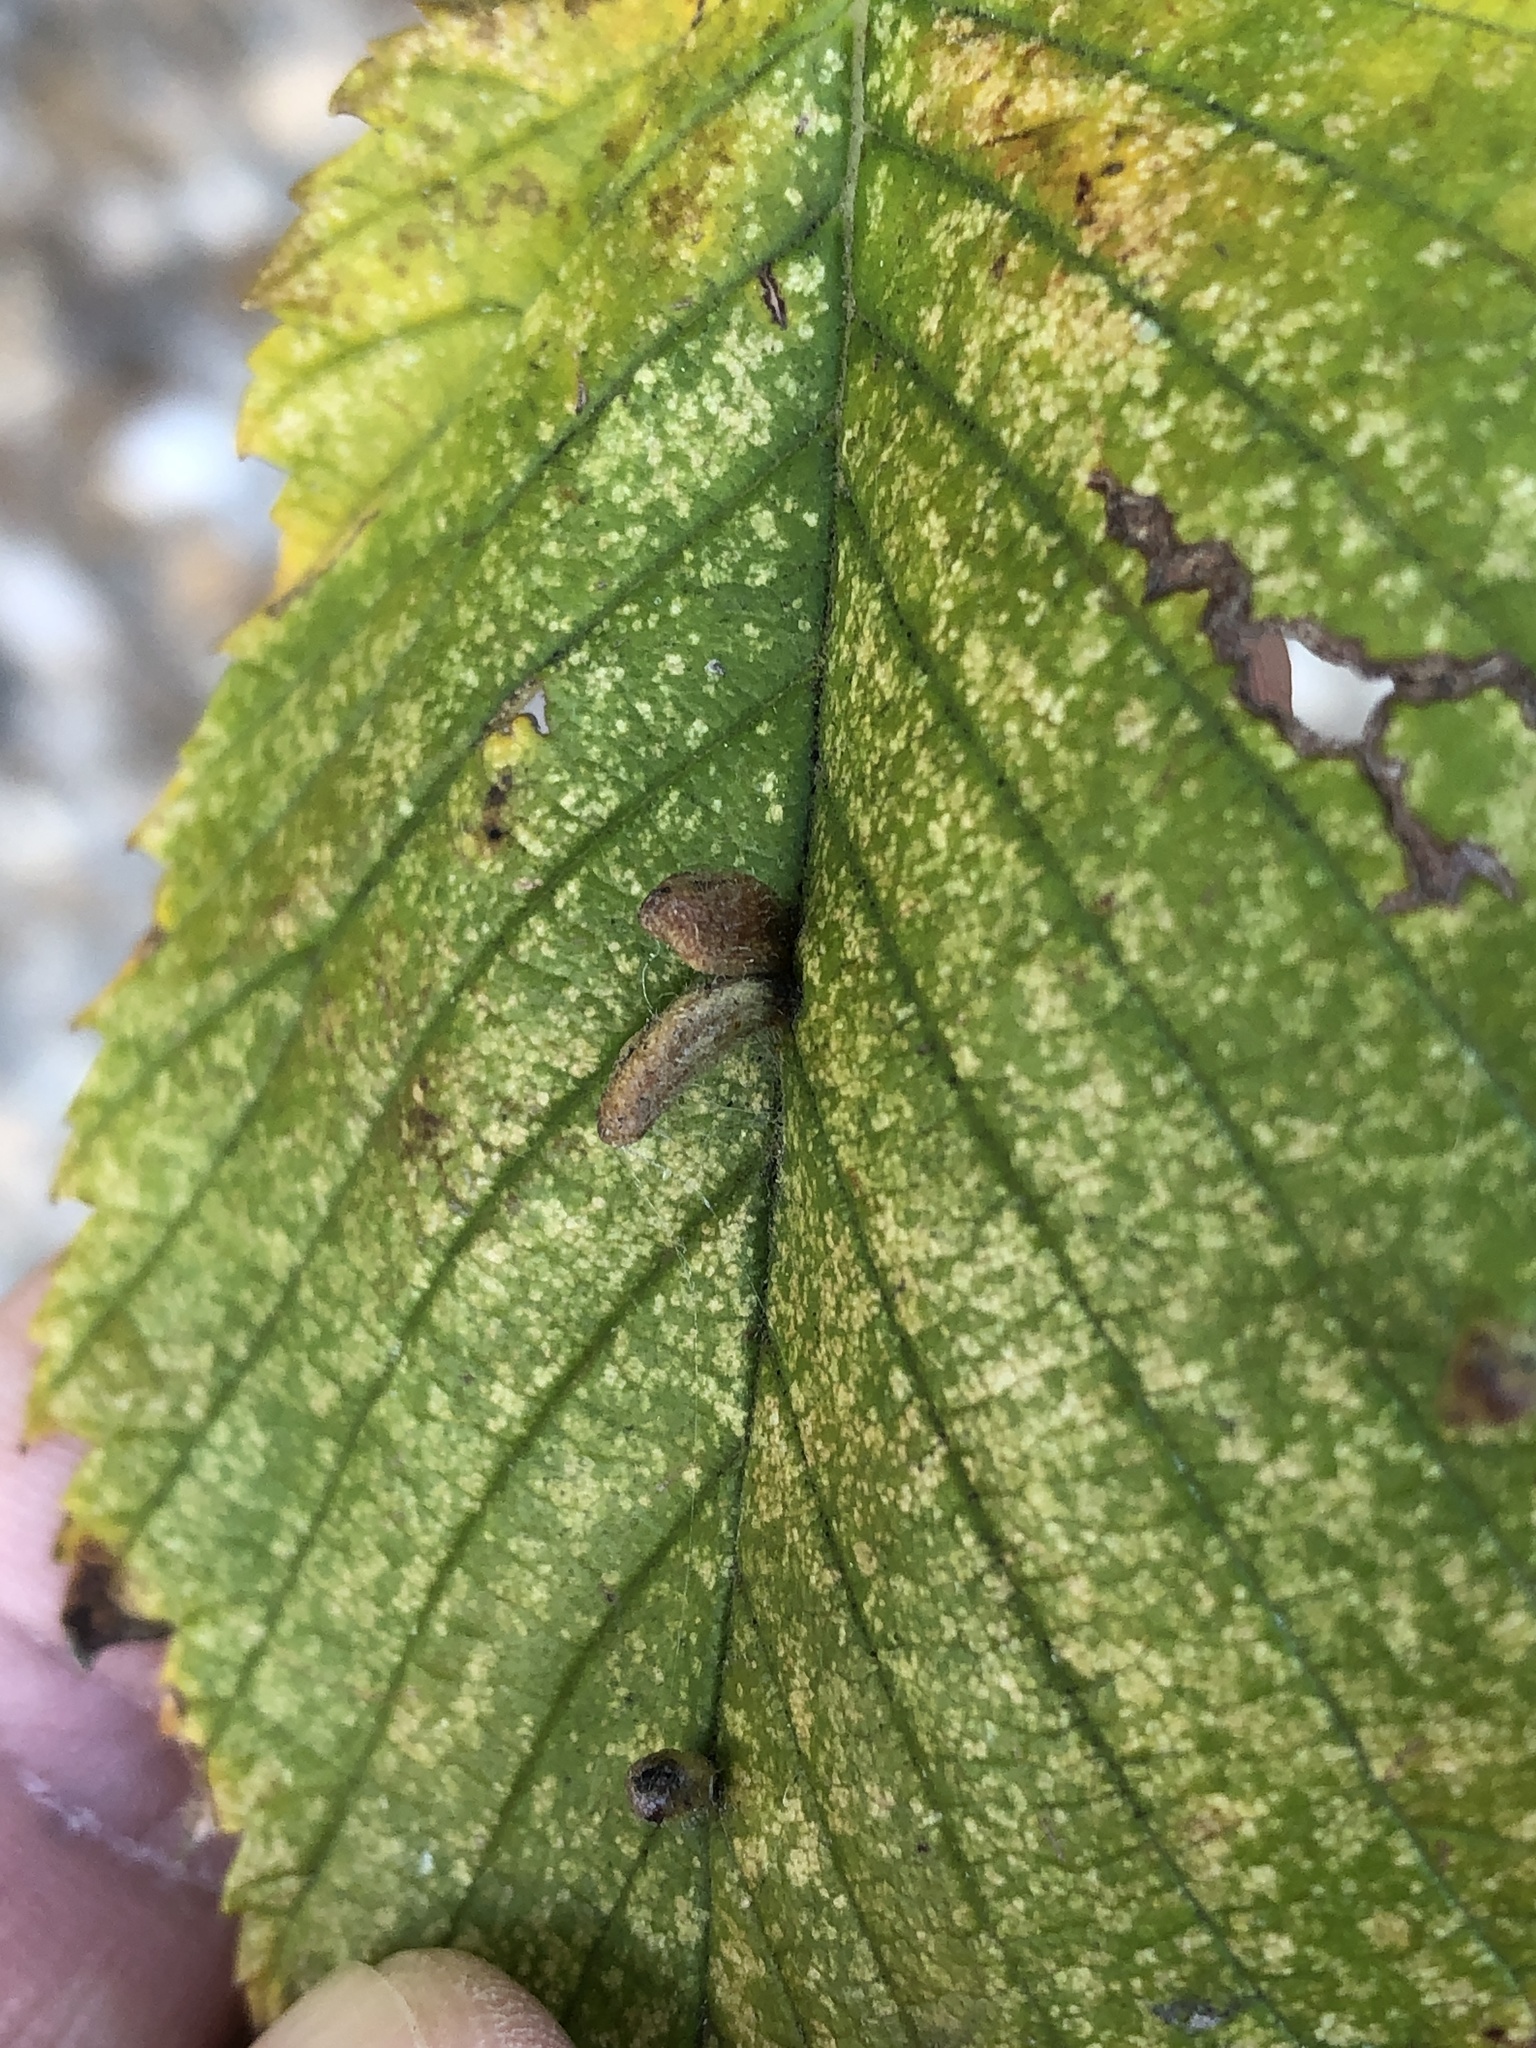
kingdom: Animalia
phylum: Arthropoda
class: Arachnida
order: Trombidiformes
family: Eriophyidae
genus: Aceria
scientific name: Aceria
